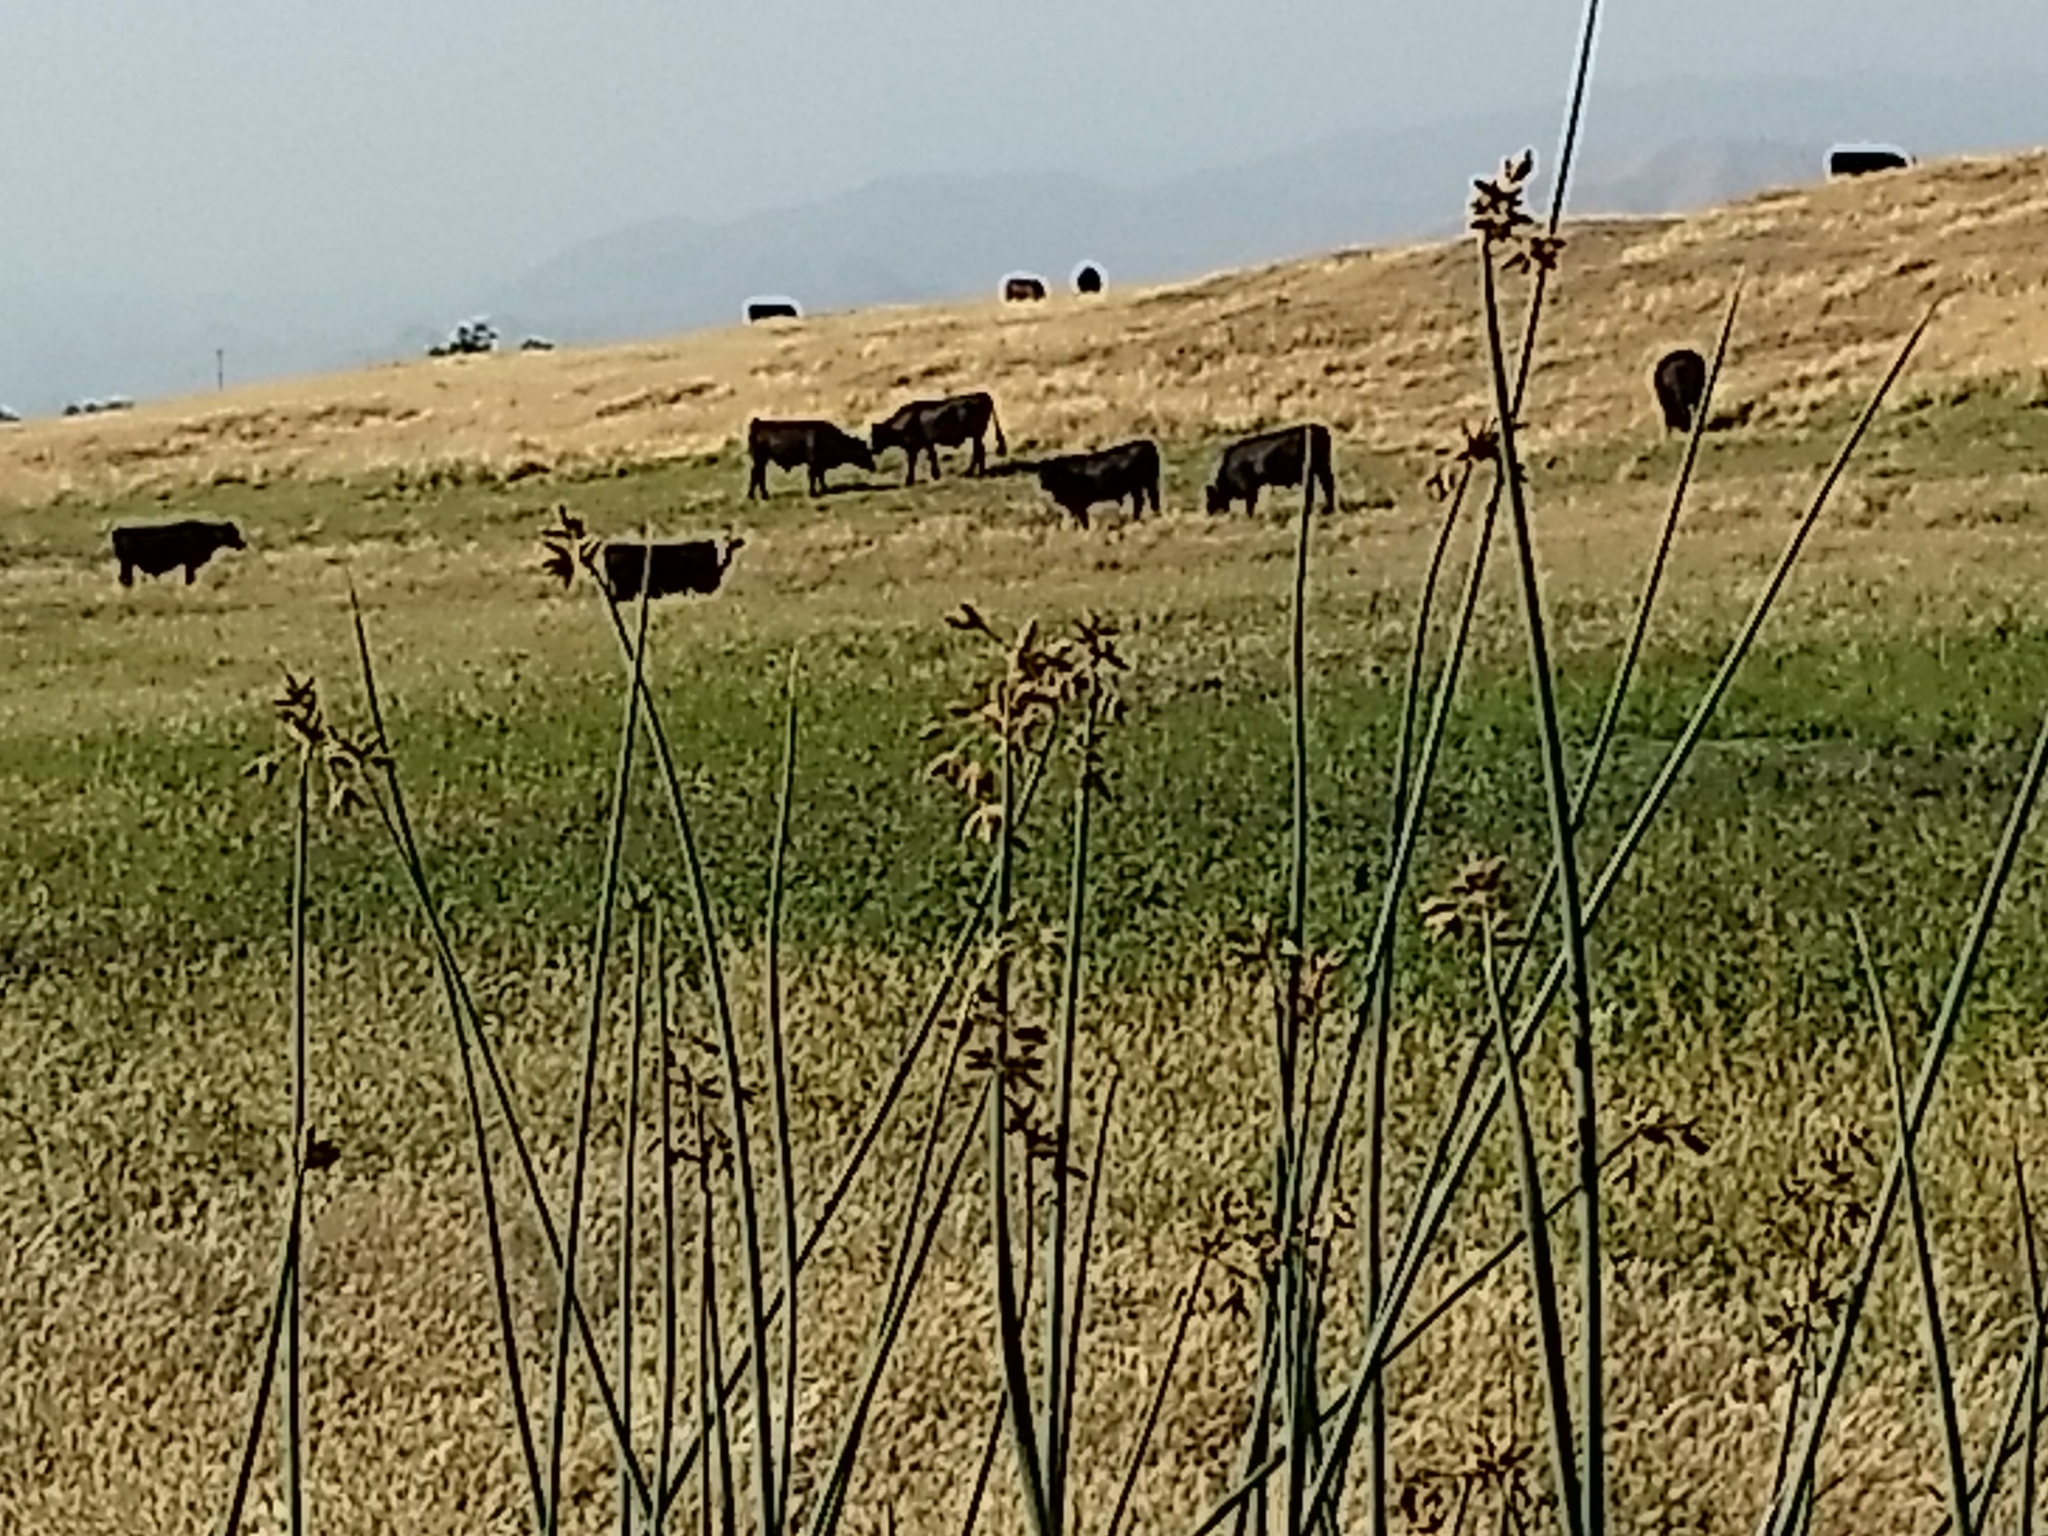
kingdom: Plantae
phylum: Tracheophyta
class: Liliopsida
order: Poales
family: Cyperaceae
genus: Schoenoplectus
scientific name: Schoenoplectus acutus
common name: Hardstem bulrush
